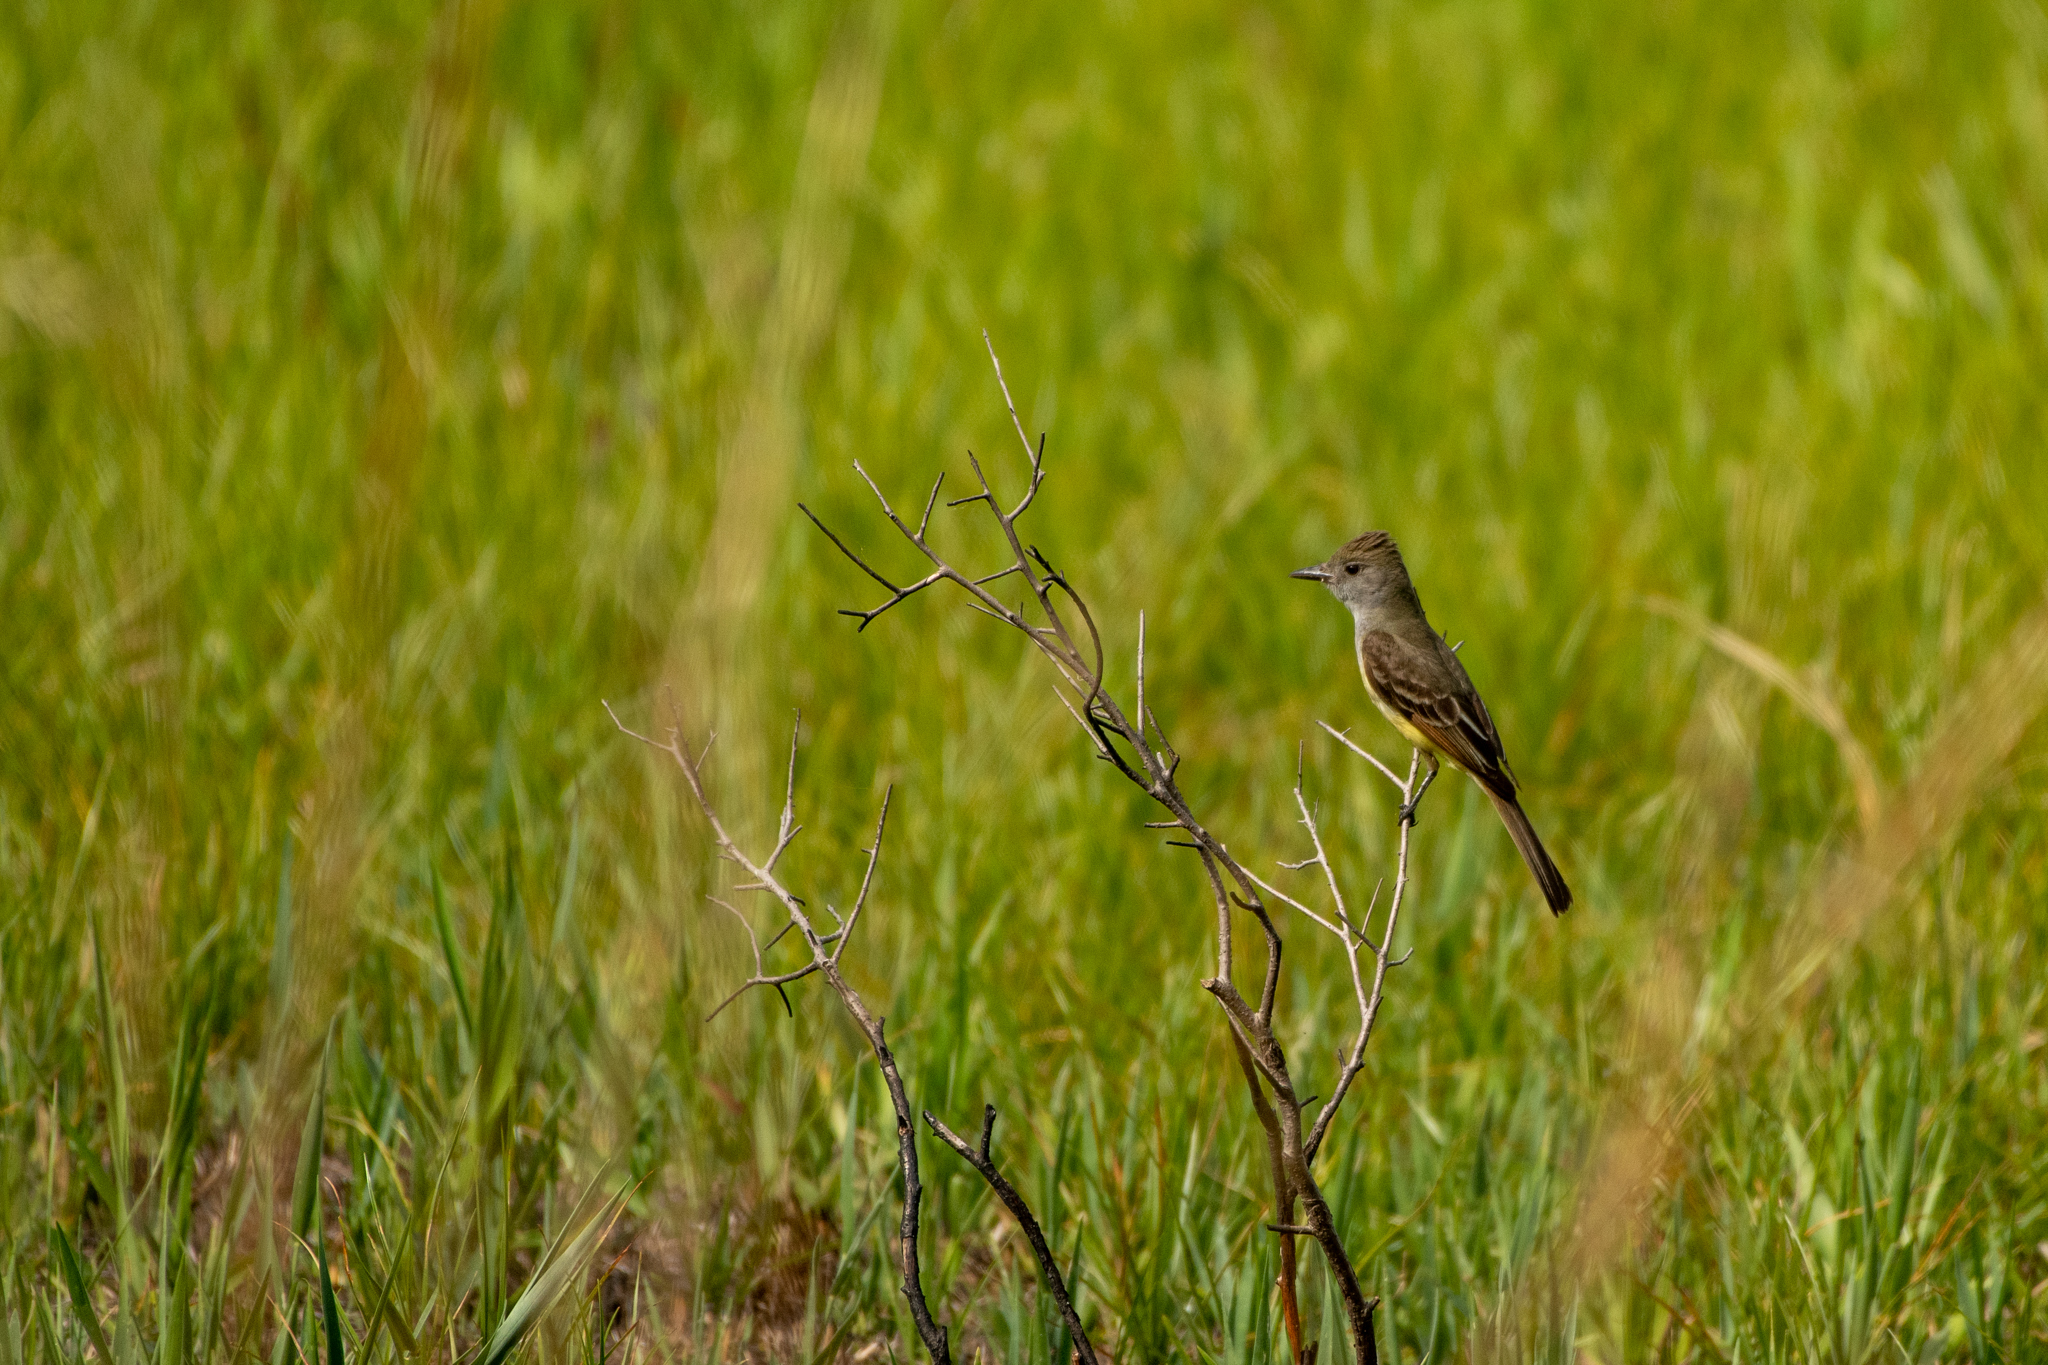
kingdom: Animalia
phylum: Chordata
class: Aves
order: Passeriformes
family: Tyrannidae
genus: Myiarchus
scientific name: Myiarchus crinitus
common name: Great crested flycatcher
